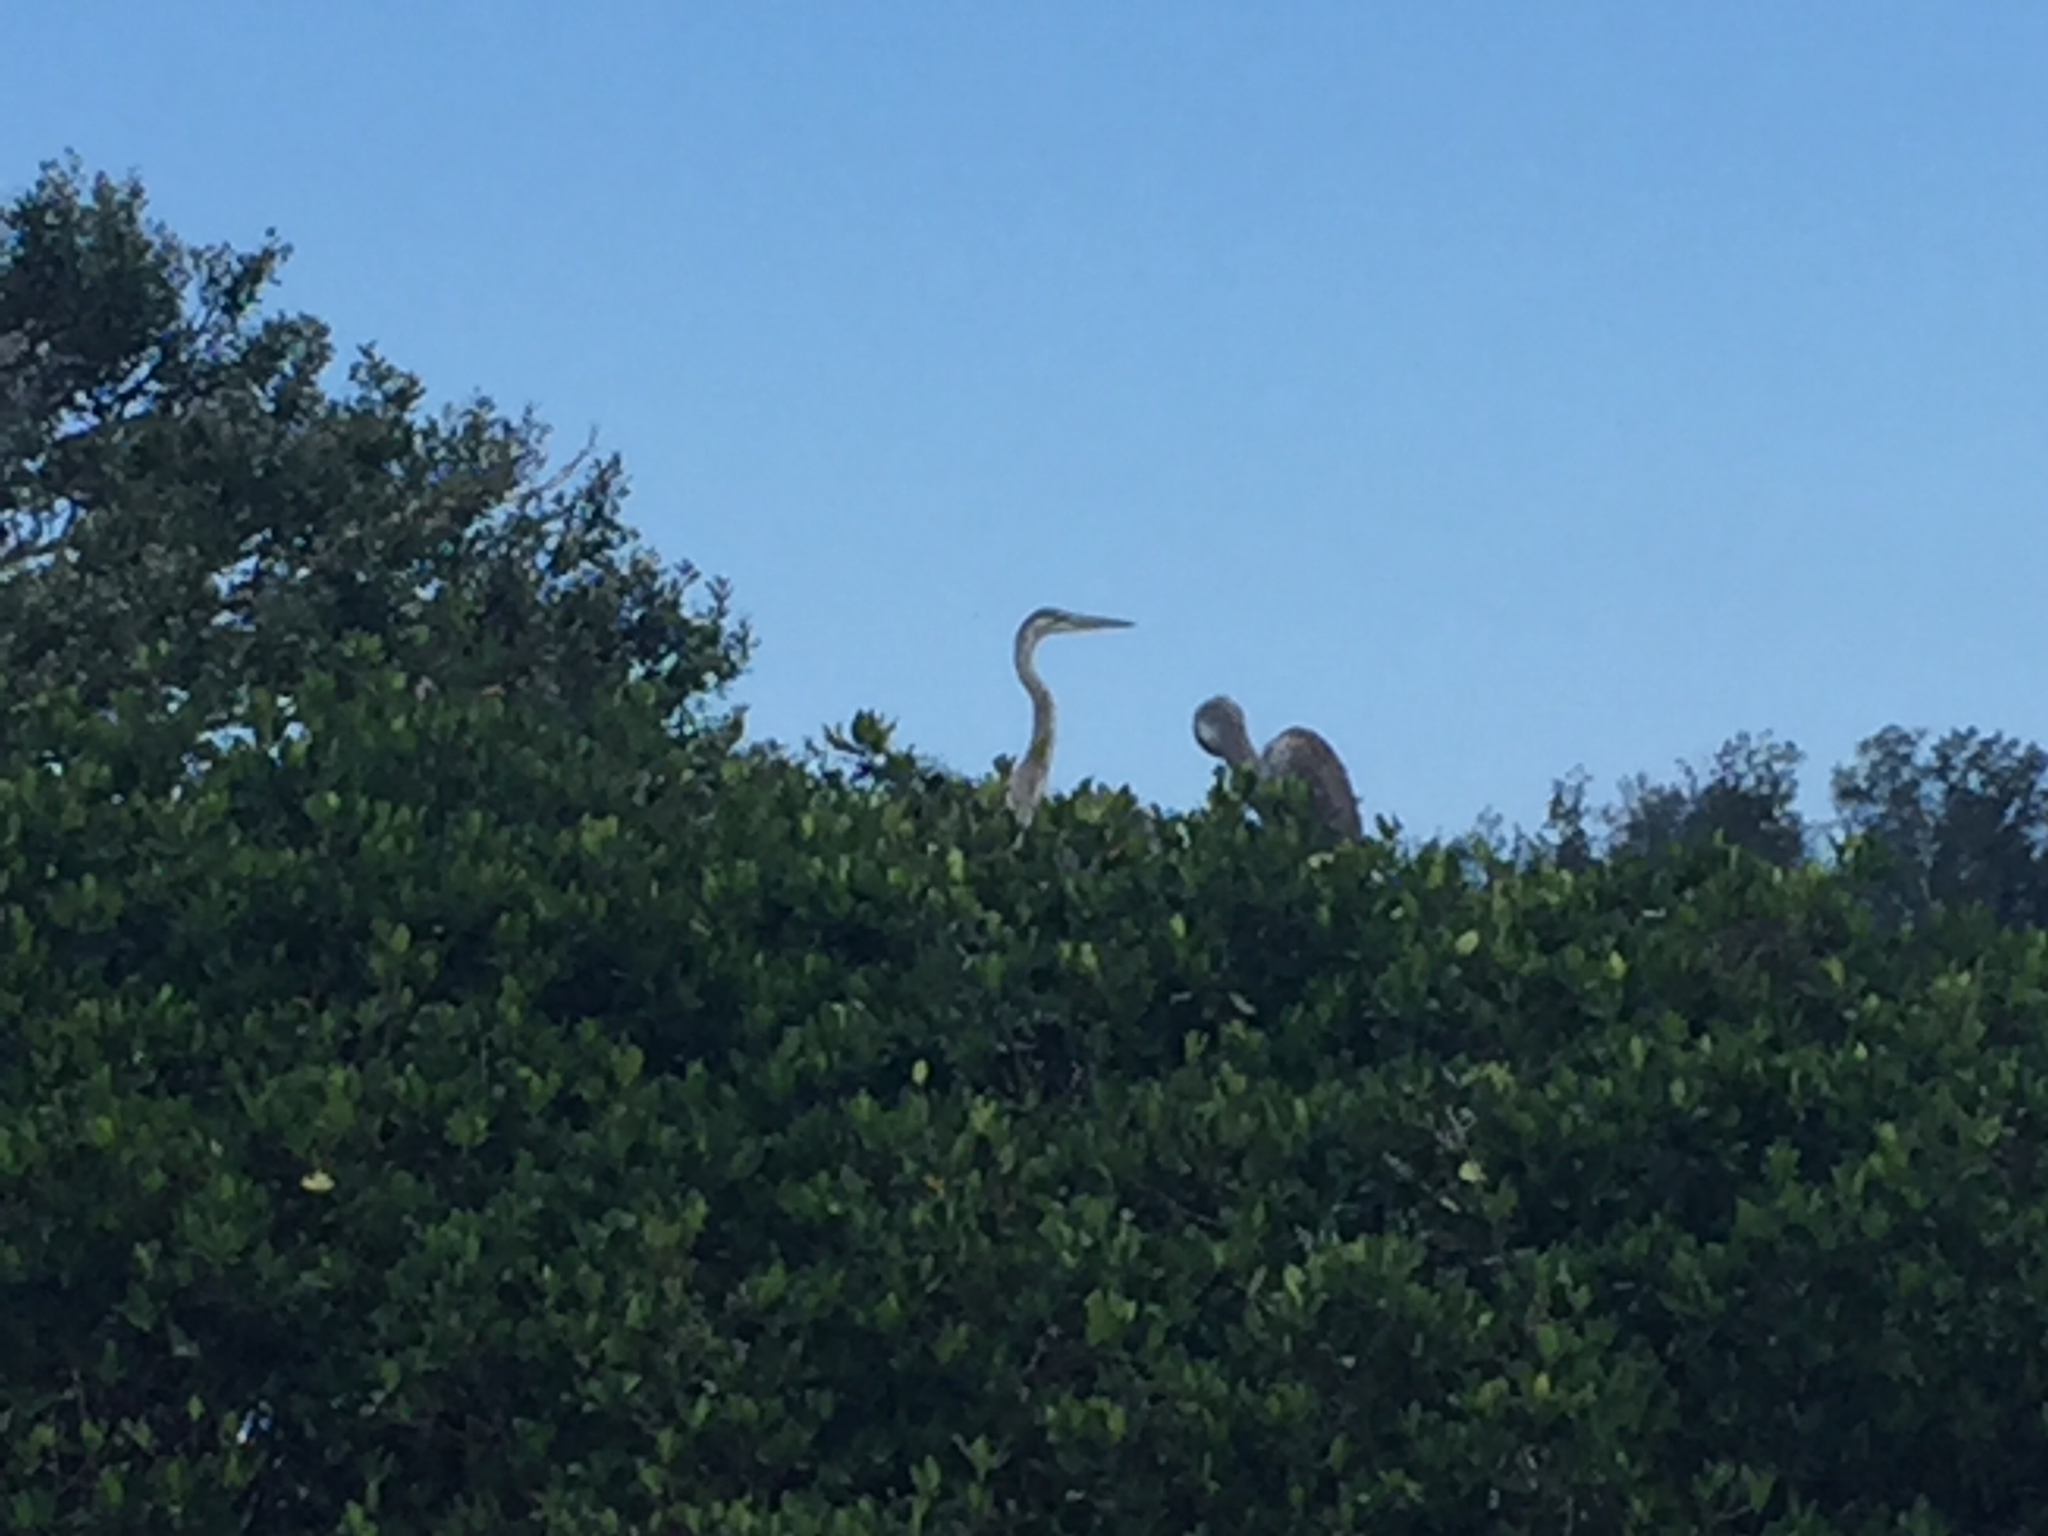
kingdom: Animalia
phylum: Chordata
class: Aves
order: Pelecaniformes
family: Ardeidae
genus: Ardea
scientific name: Ardea herodias
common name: Great blue heron
